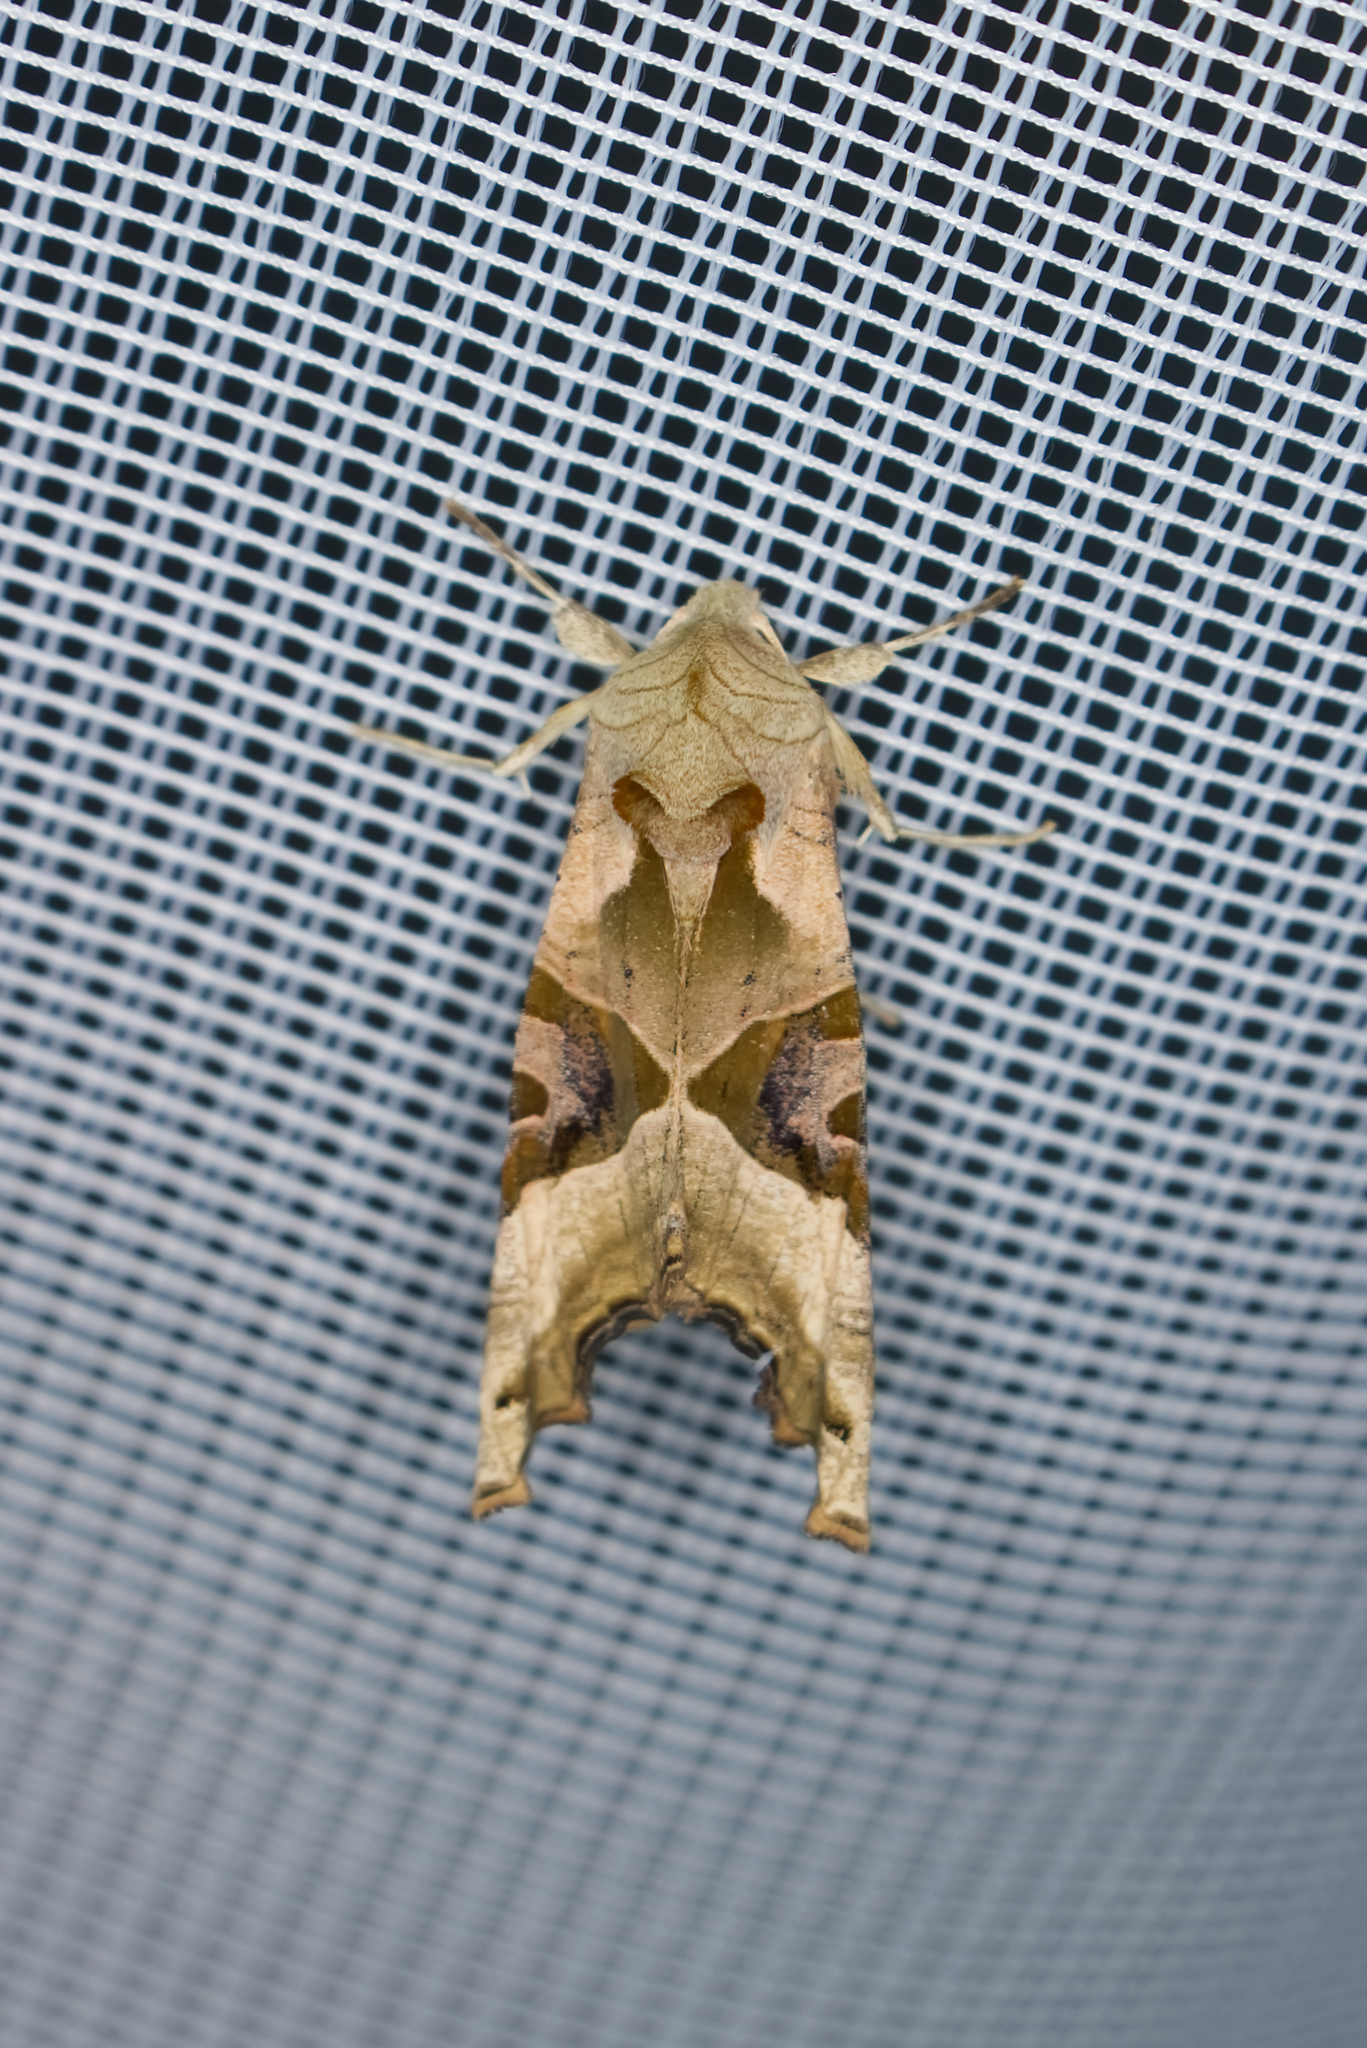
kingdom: Animalia
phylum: Arthropoda
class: Insecta
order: Lepidoptera
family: Noctuidae
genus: Phlogophora
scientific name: Phlogophora meticulosa
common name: Angle shades
